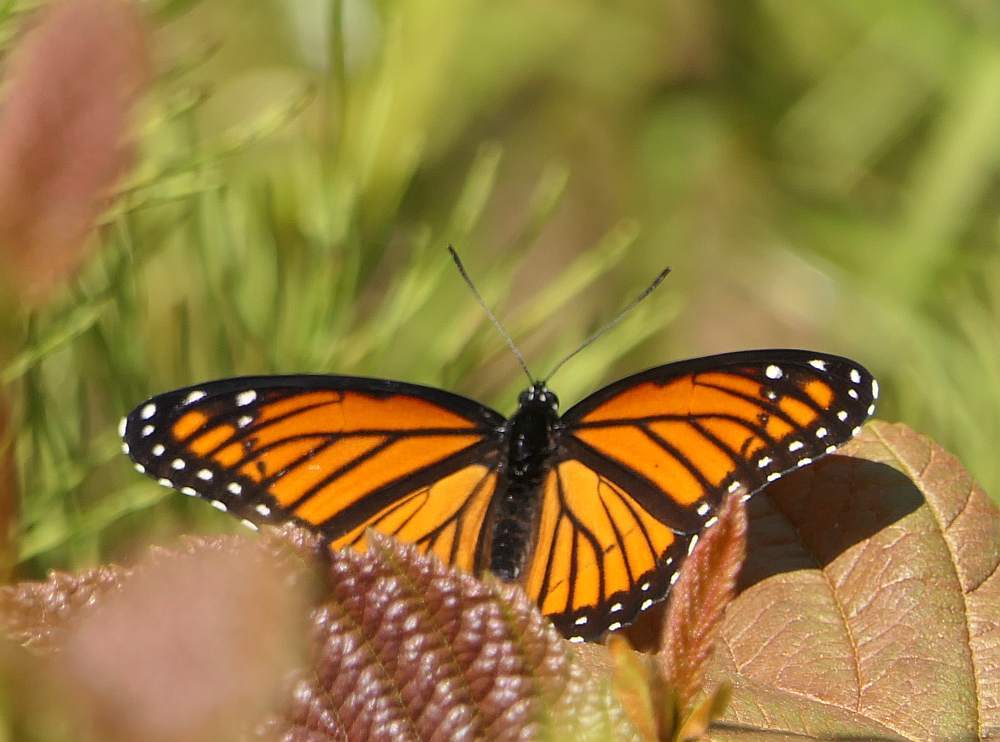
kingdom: Animalia
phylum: Arthropoda
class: Insecta
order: Lepidoptera
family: Nymphalidae
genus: Limenitis
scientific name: Limenitis archippus
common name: Viceroy
